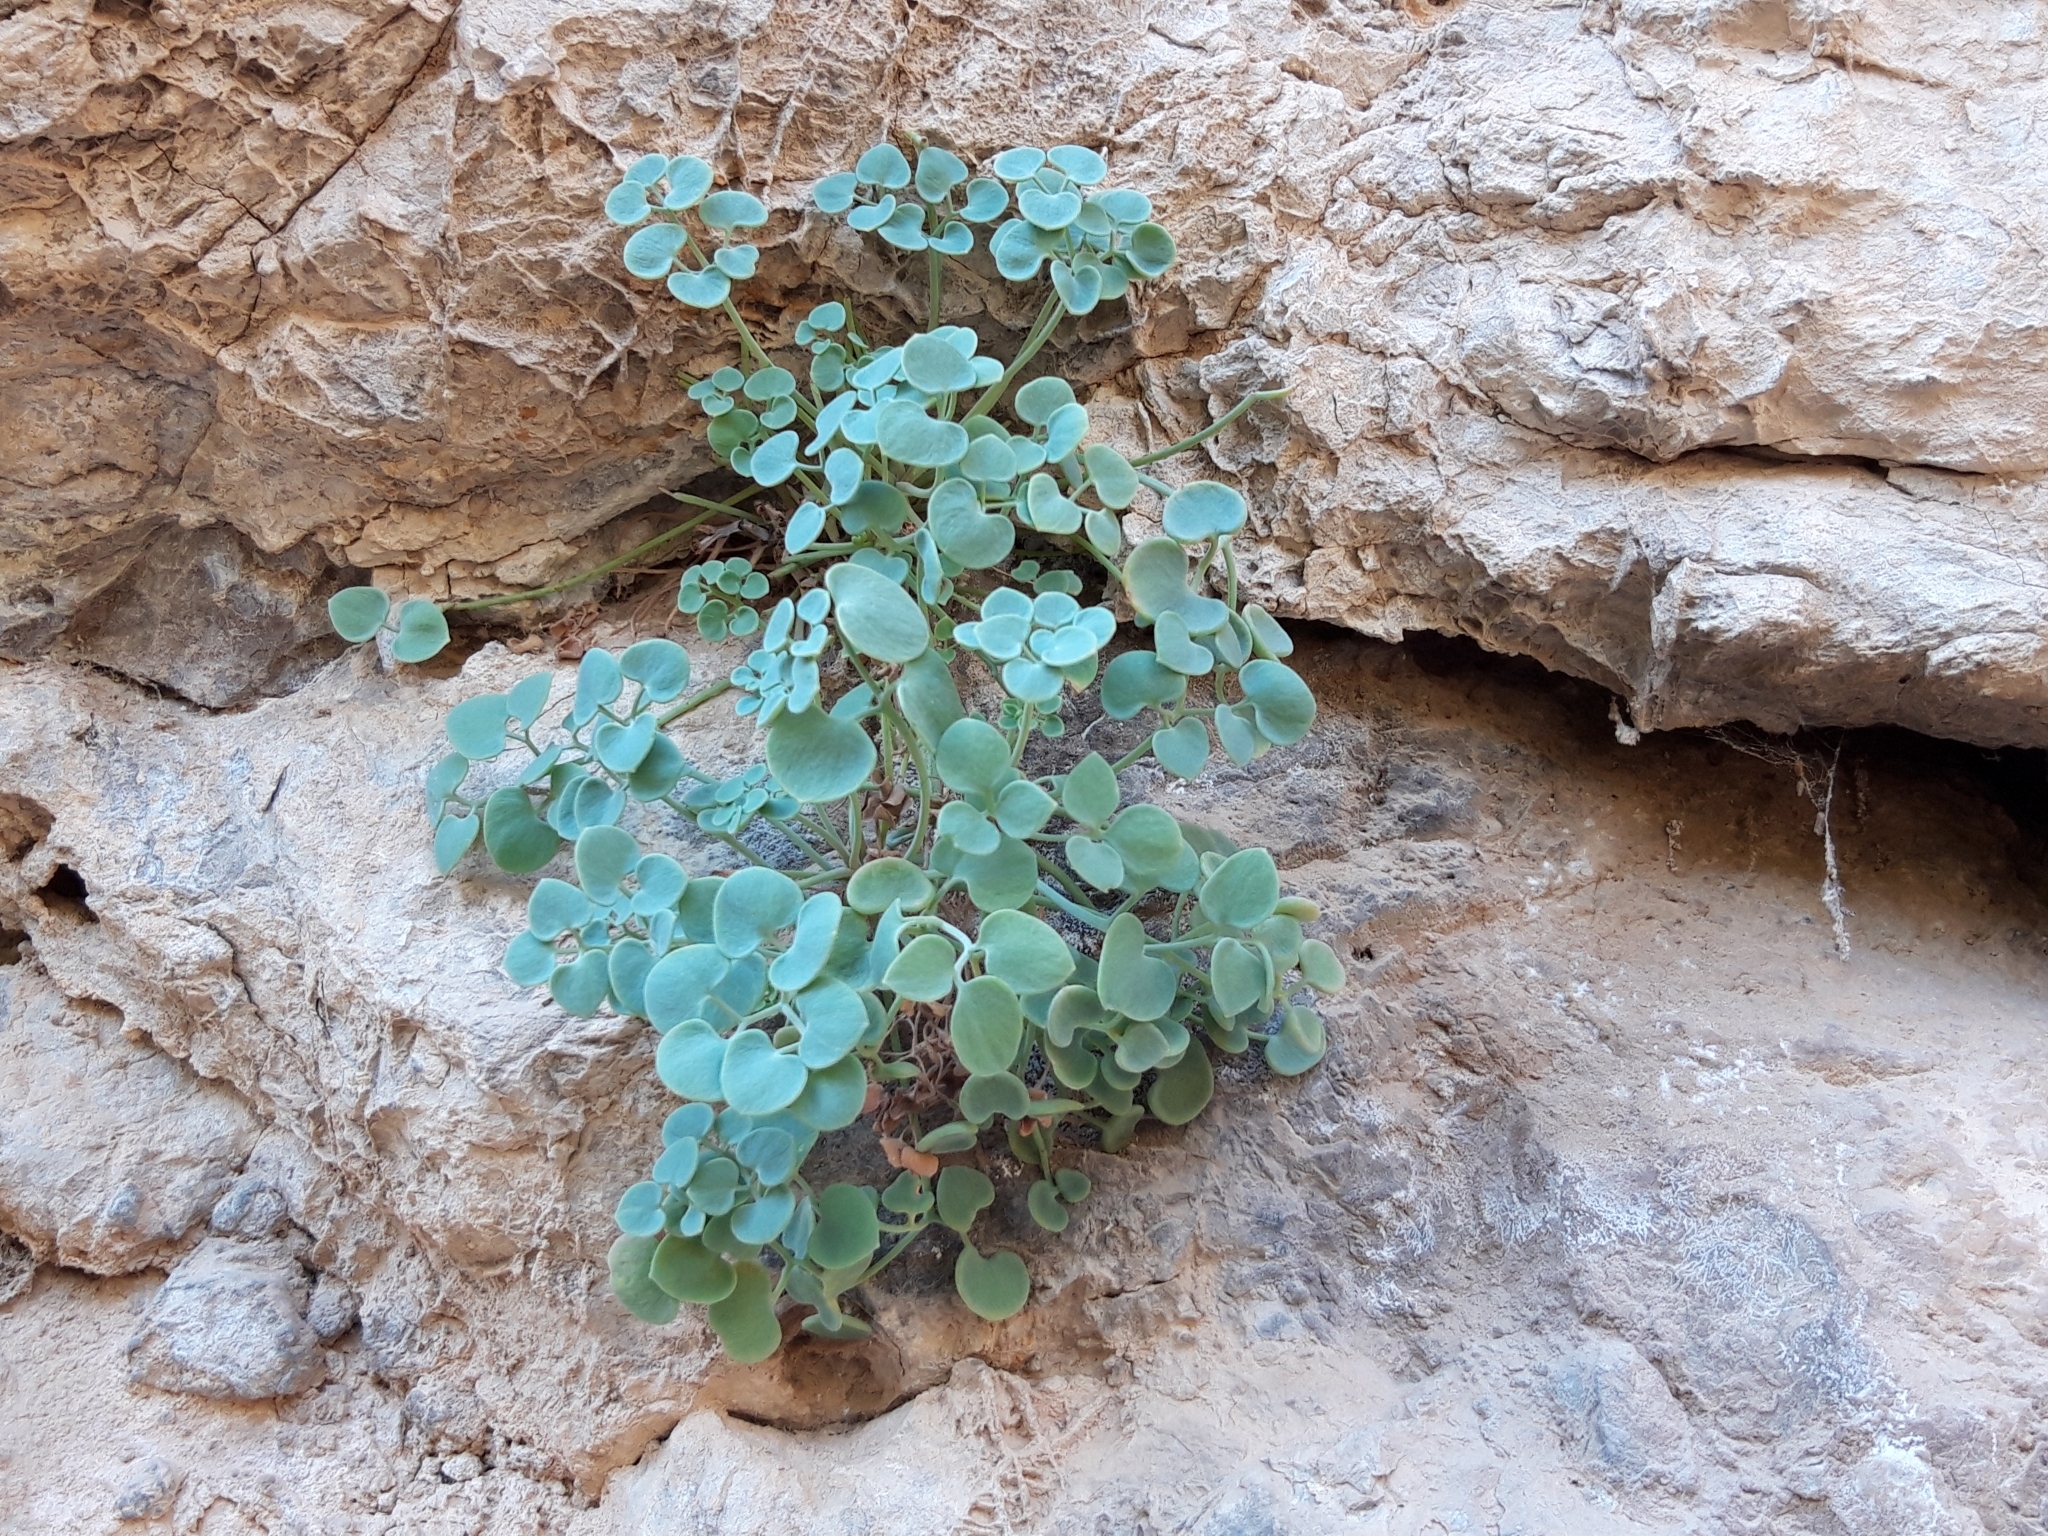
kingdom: Plantae
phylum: Tracheophyta
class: Magnoliopsida
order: Ranunculales
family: Papaveraceae
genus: Sarcocapnos
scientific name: Sarcocapnos enneaphylla
